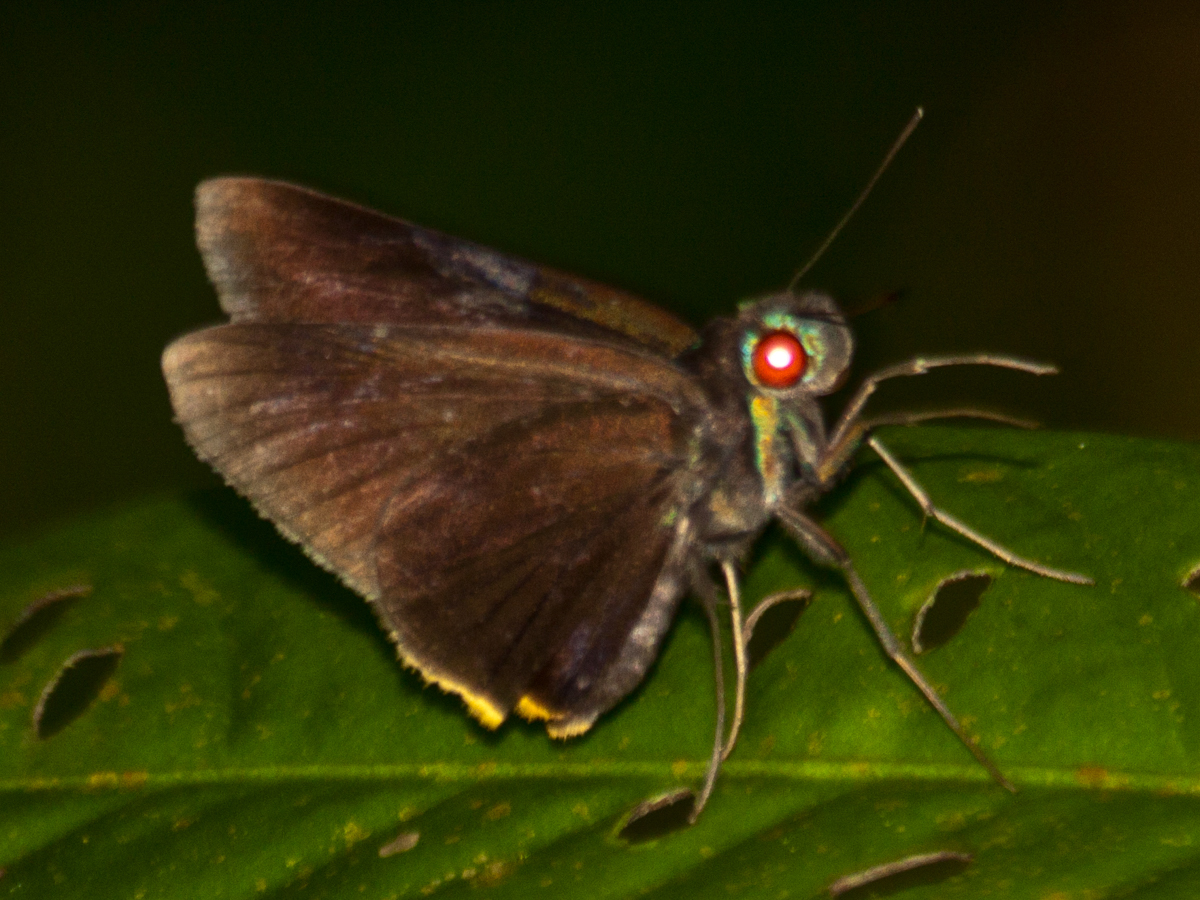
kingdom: Animalia
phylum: Arthropoda
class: Insecta
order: Lepidoptera
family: Hesperiidae
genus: Matapa
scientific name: Matapa sasivarna
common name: Black-veined redeye
